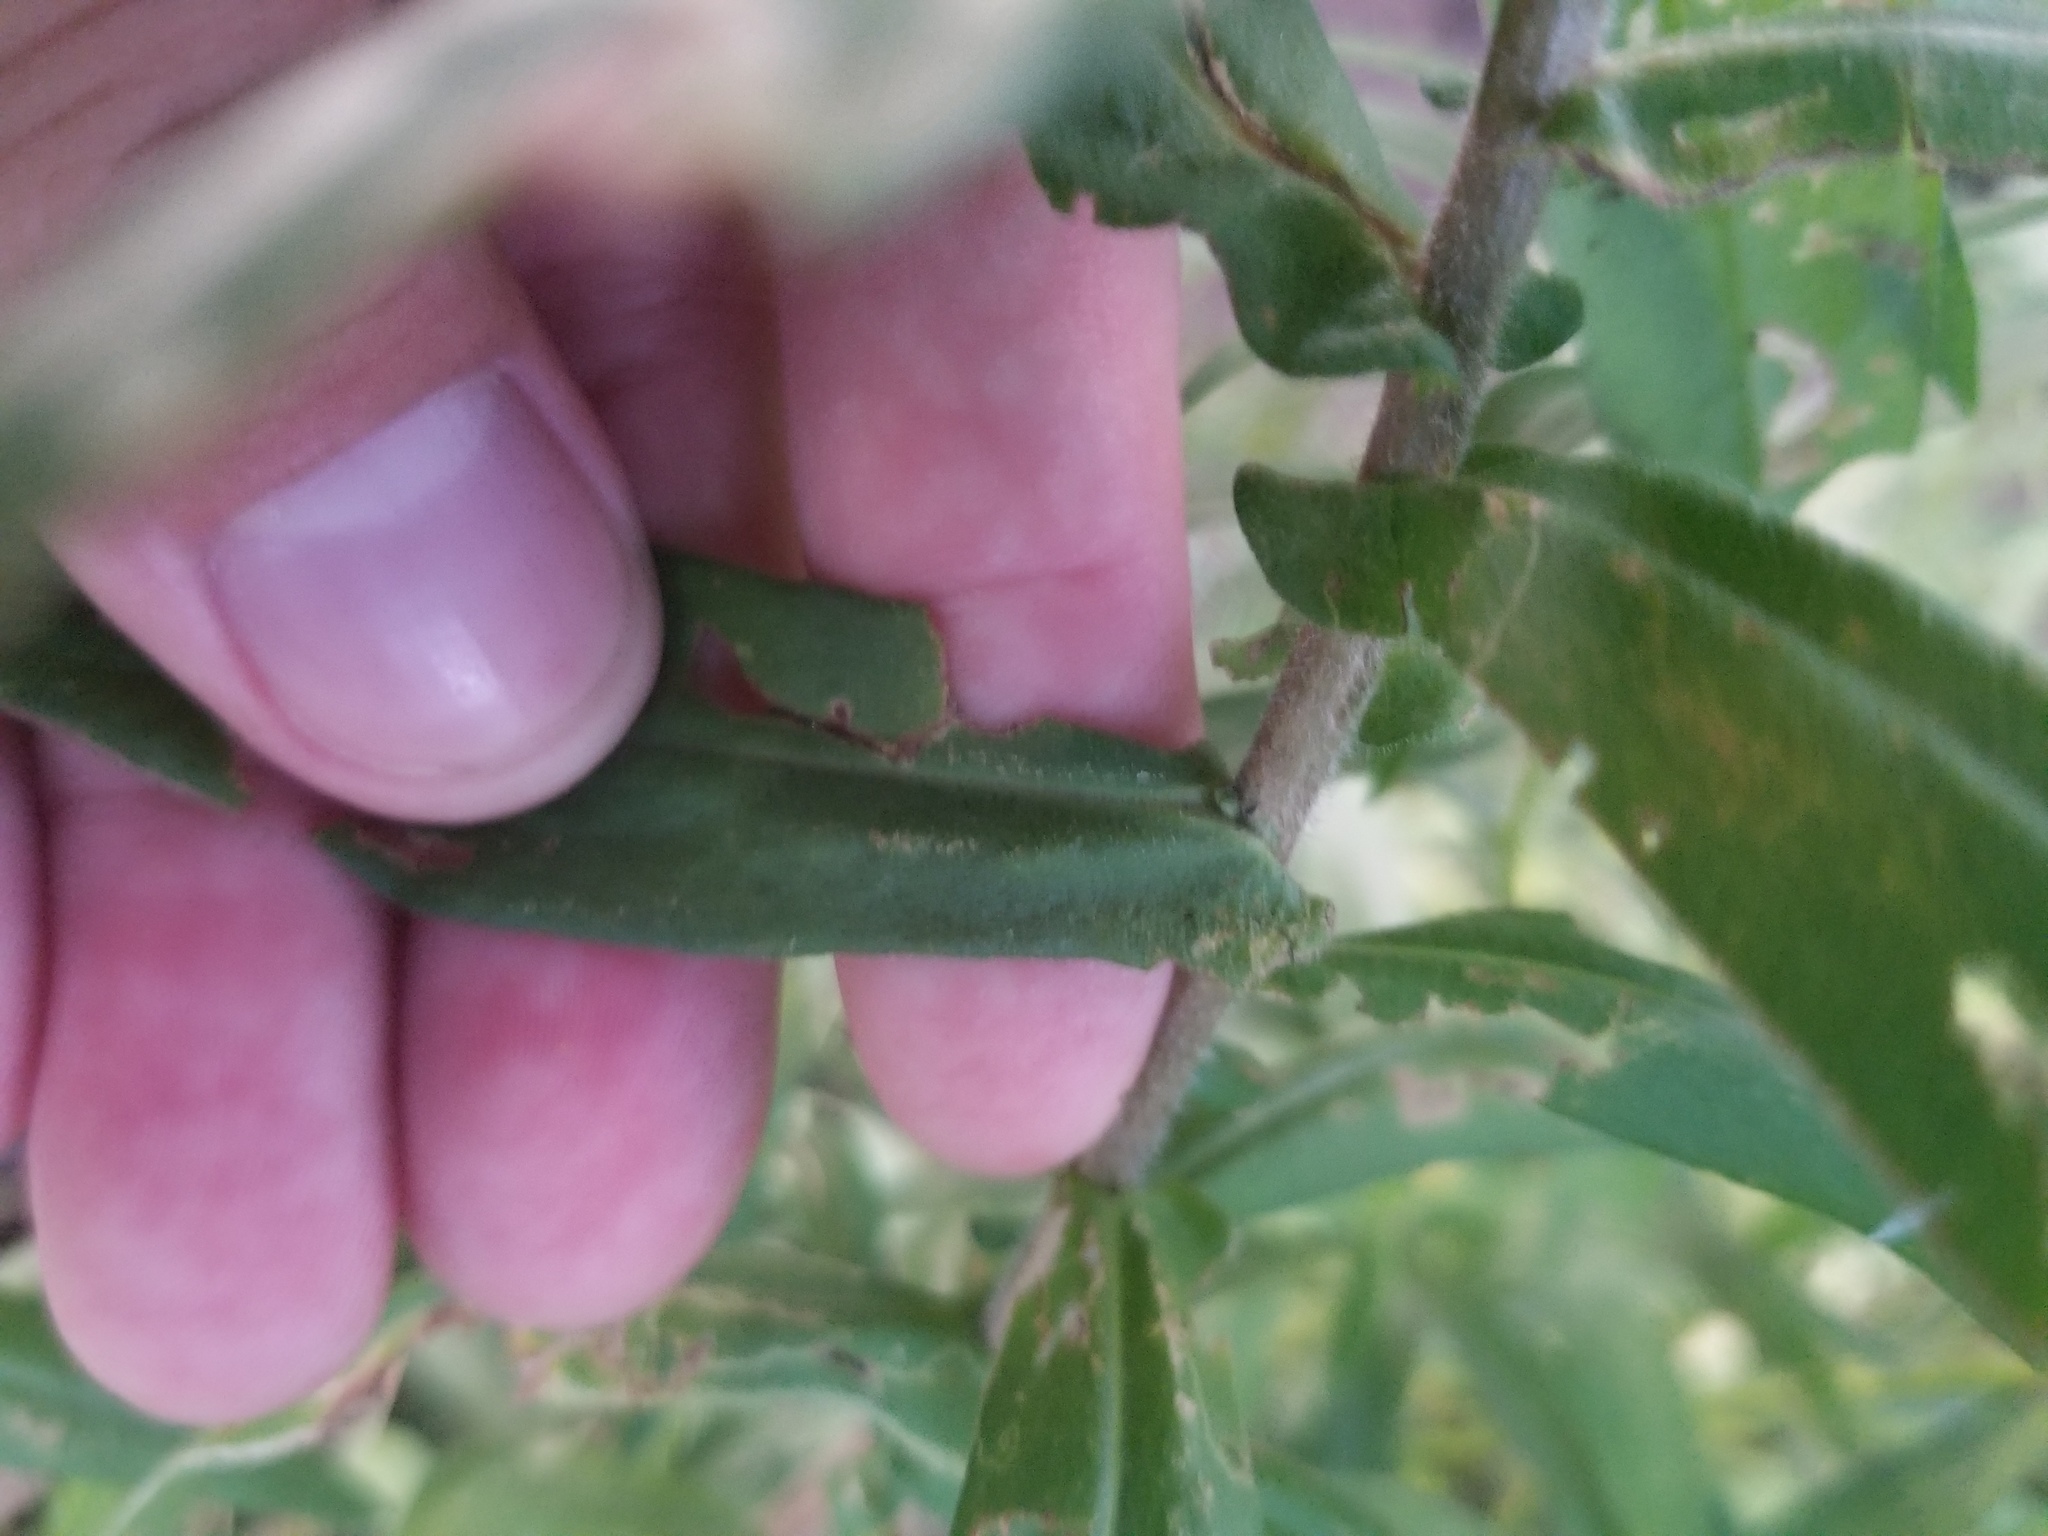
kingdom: Plantae
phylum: Tracheophyta
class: Magnoliopsida
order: Asterales
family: Asteraceae
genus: Symphyotrichum
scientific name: Symphyotrichum novae-angliae
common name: Michaelmas daisy
